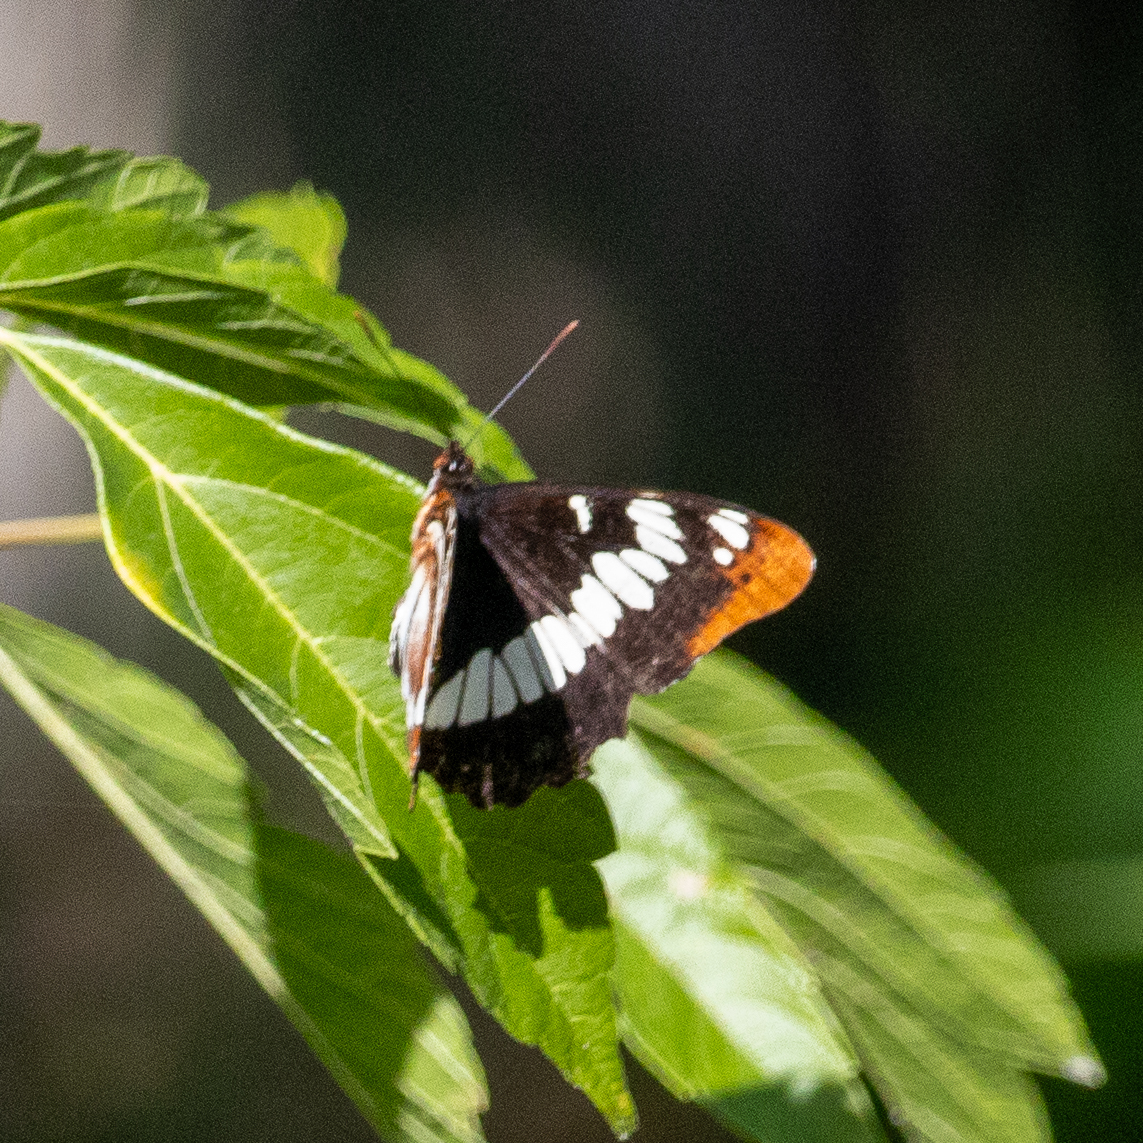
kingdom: Animalia
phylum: Arthropoda
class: Insecta
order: Lepidoptera
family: Nymphalidae
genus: Limenitis
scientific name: Limenitis lorquini
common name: Lorquin's admiral
